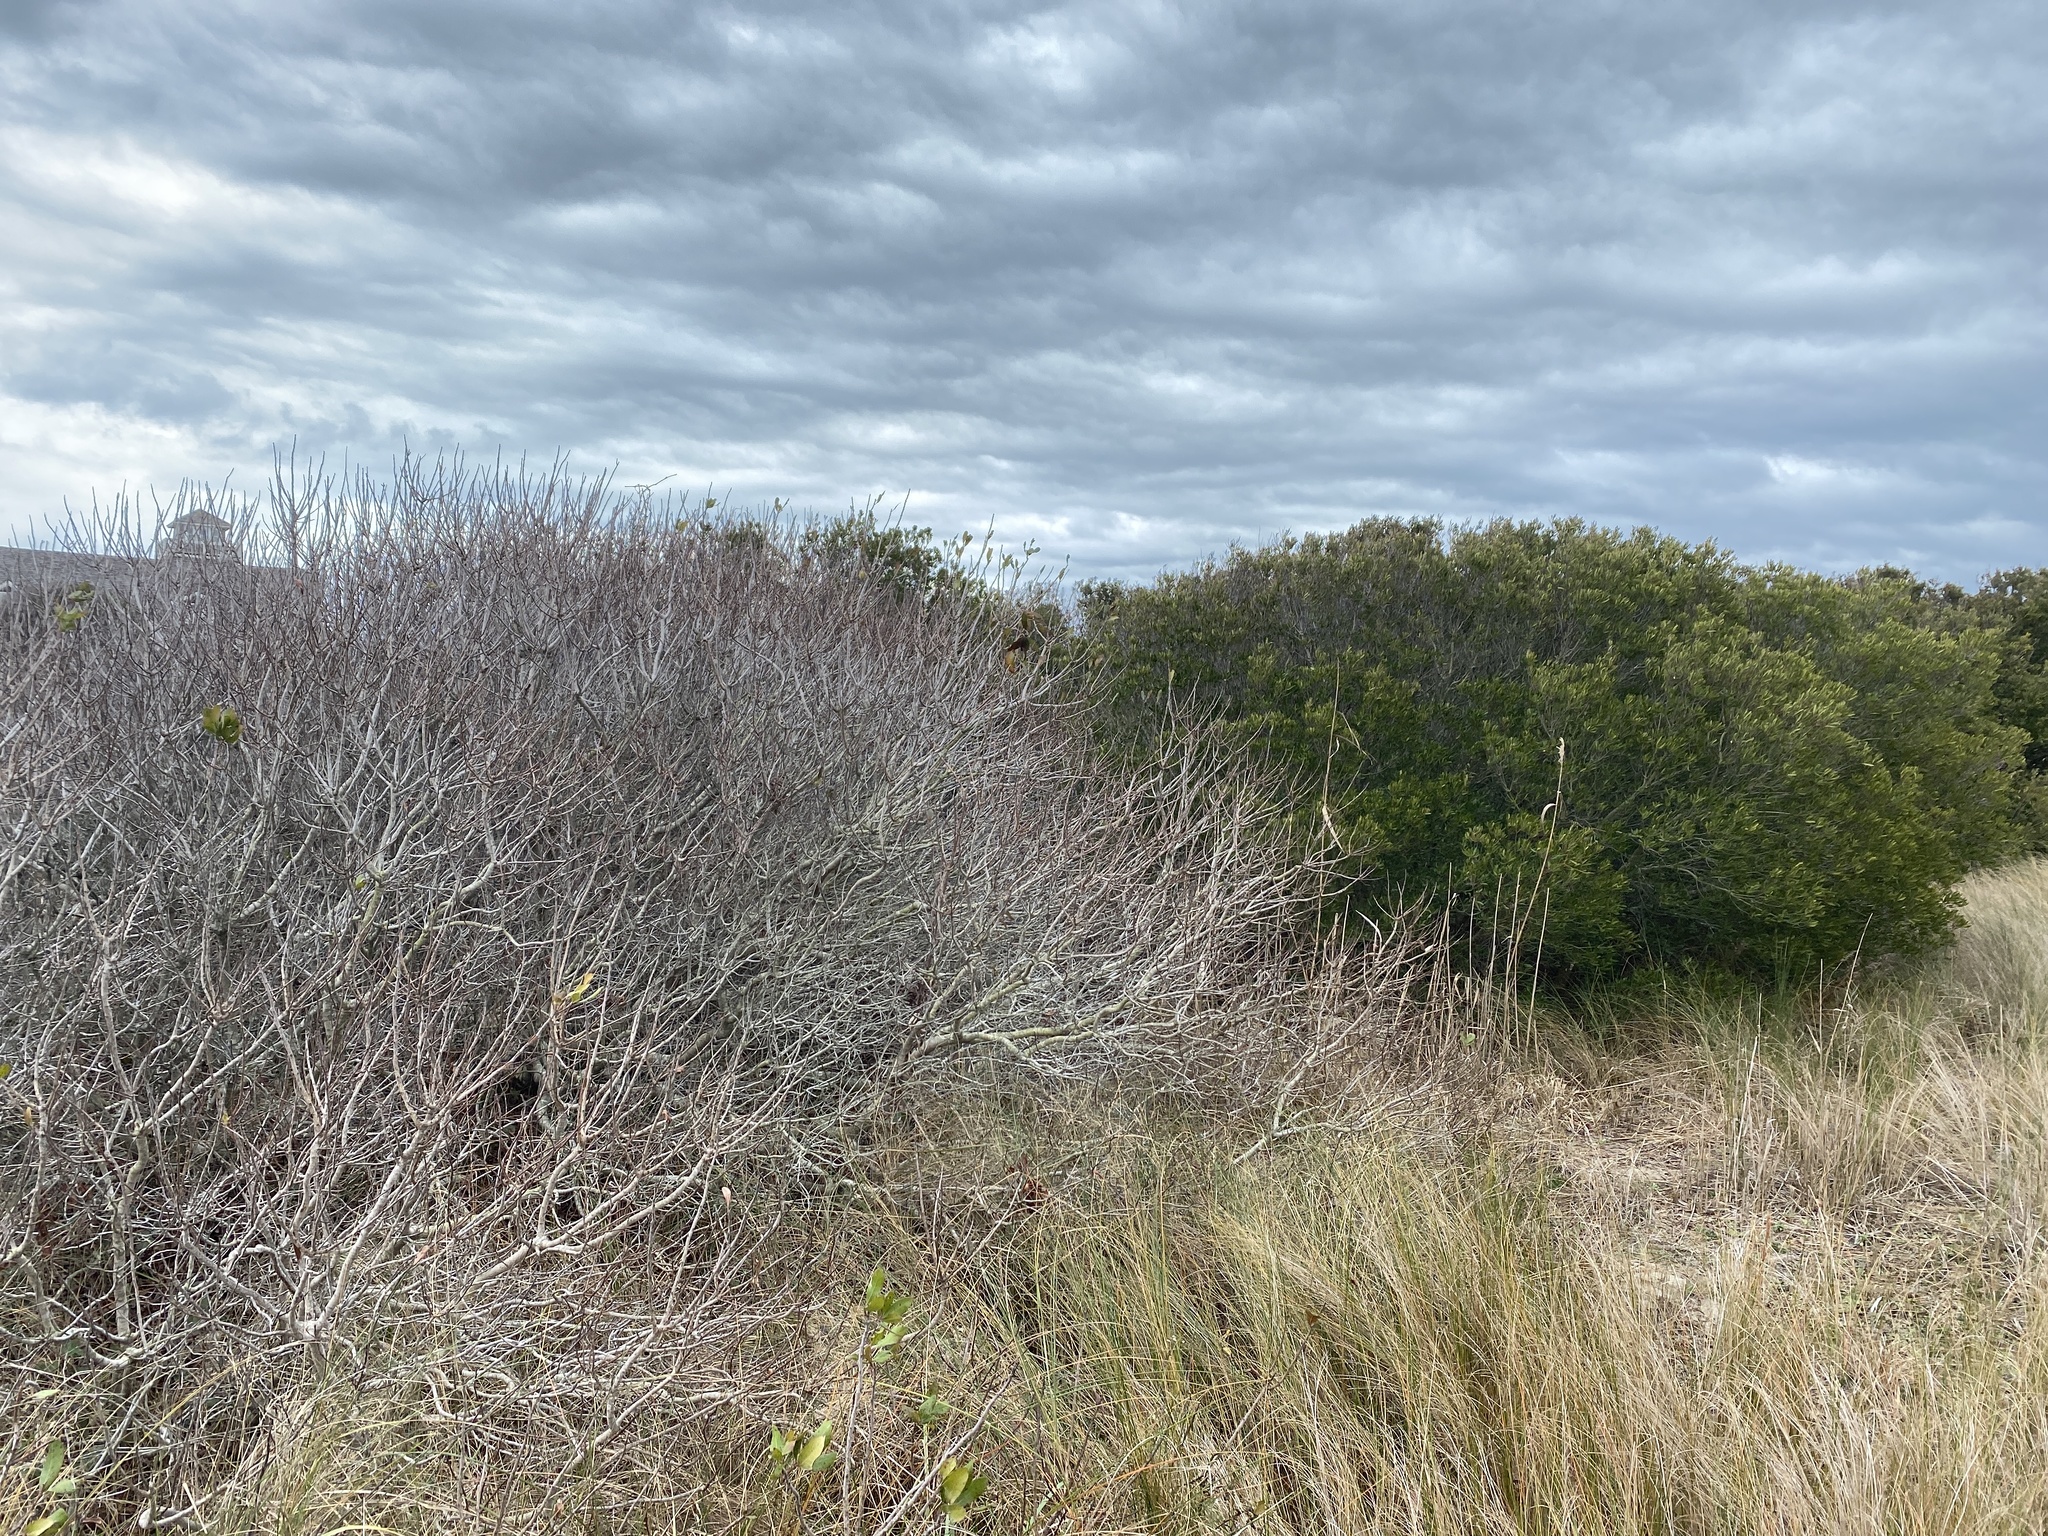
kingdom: Plantae
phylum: Tracheophyta
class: Magnoliopsida
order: Fagales
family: Myricaceae
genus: Morella
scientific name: Morella pensylvanica
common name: Northern bayberry
